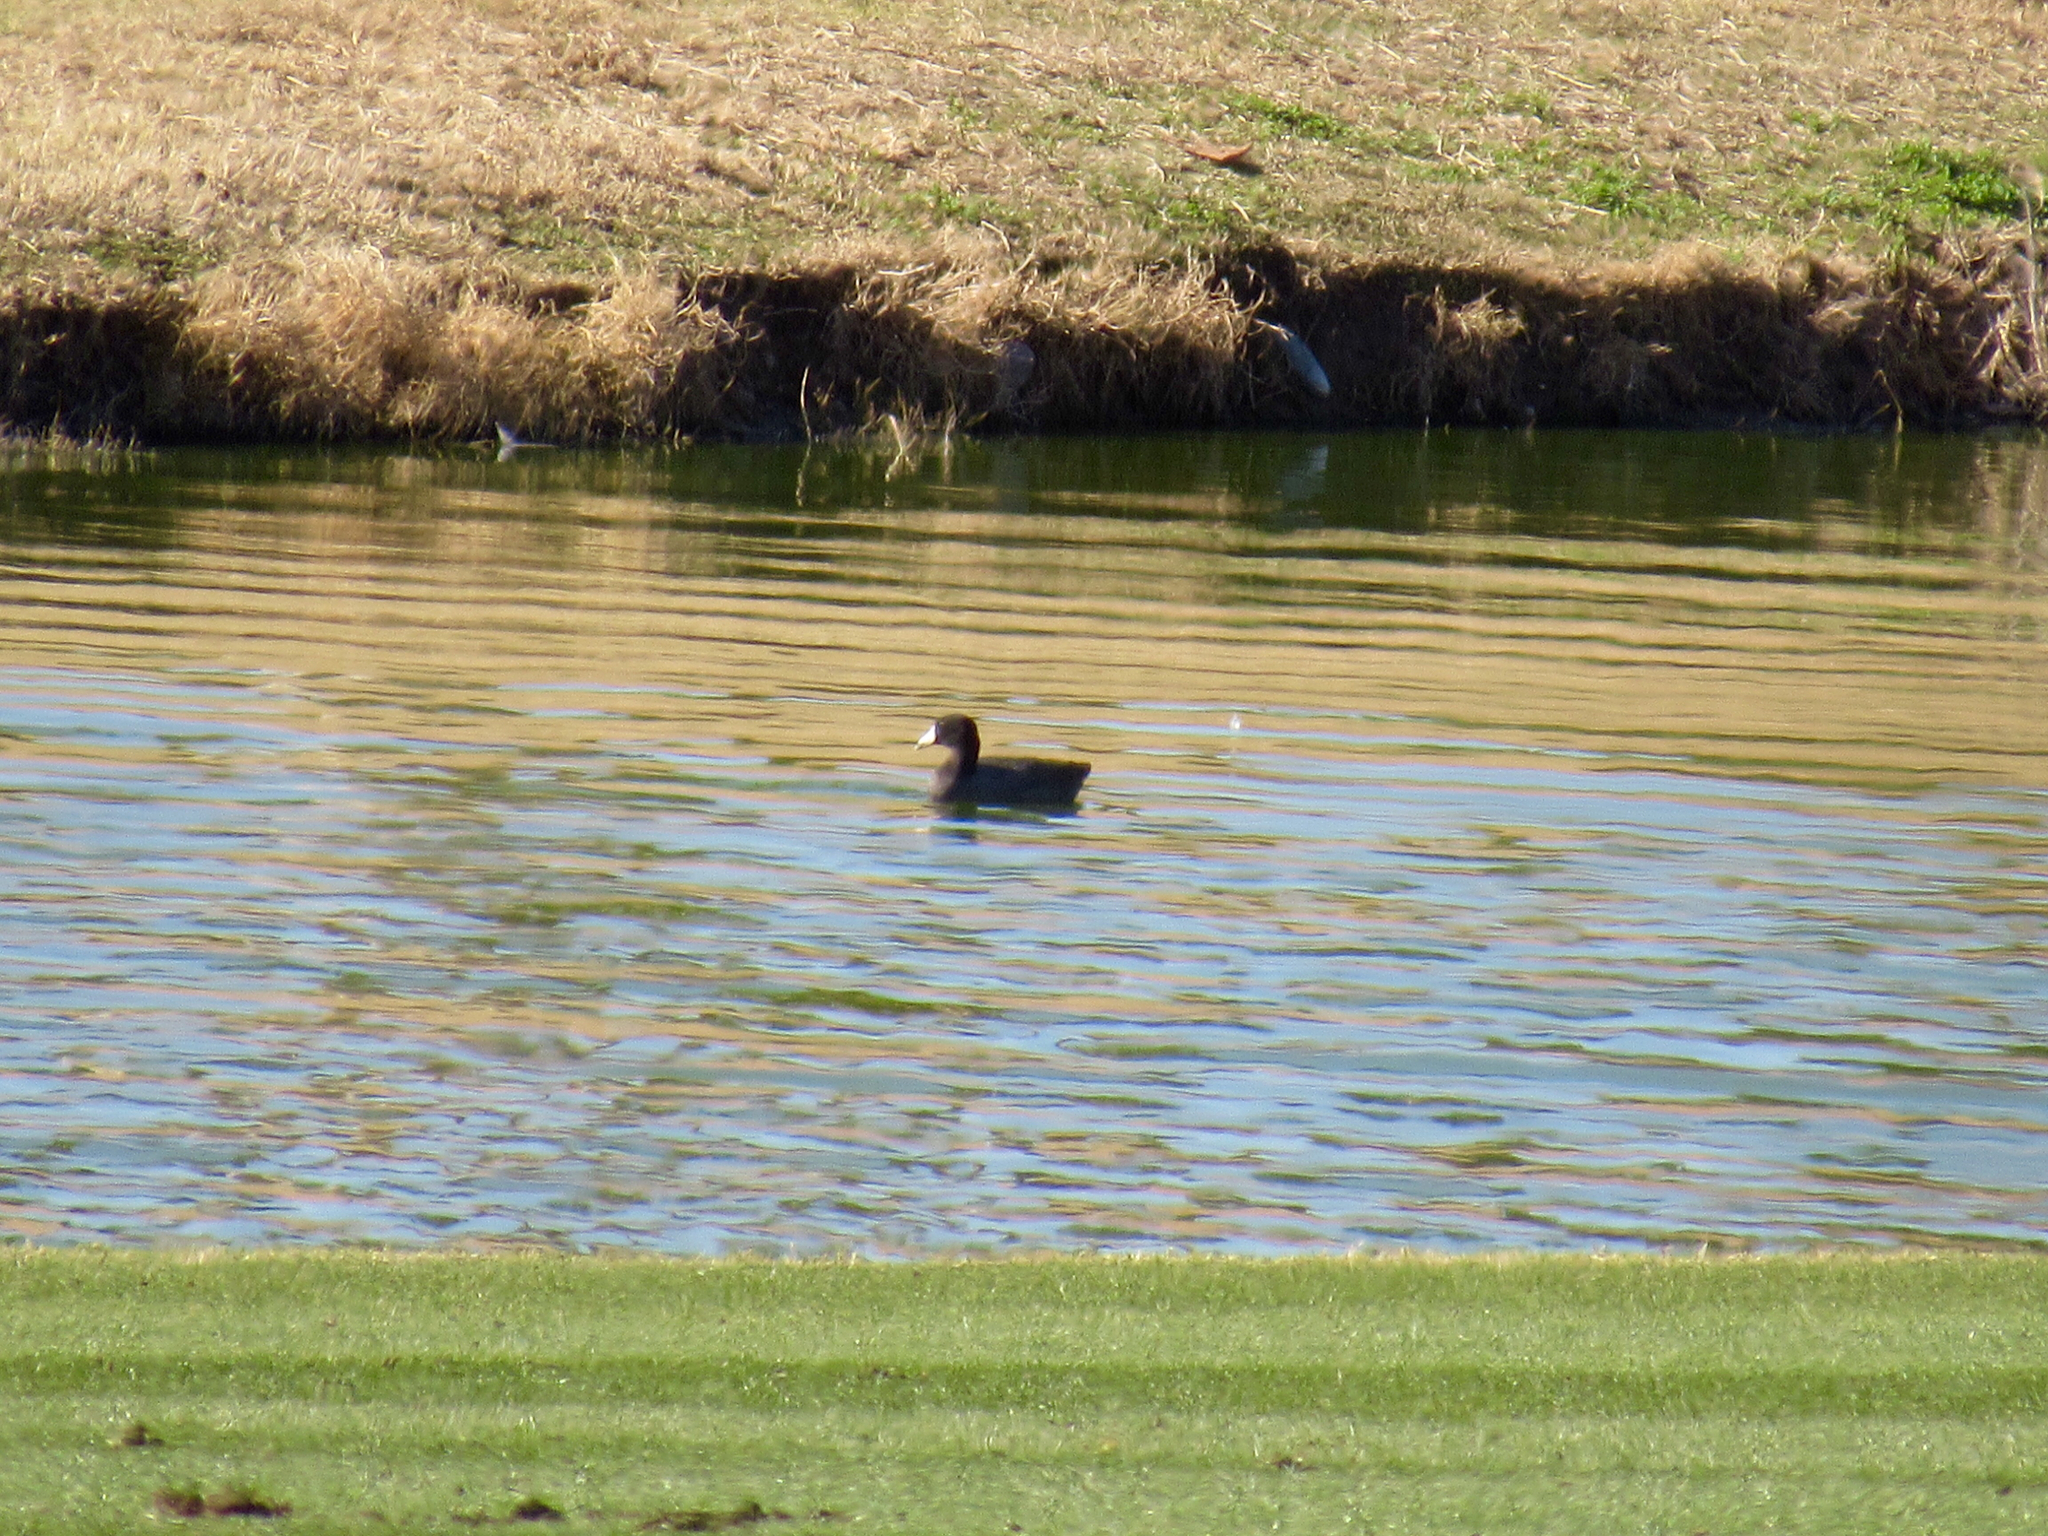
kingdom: Animalia
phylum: Chordata
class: Aves
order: Gruiformes
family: Rallidae
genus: Fulica
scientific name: Fulica americana
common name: American coot
